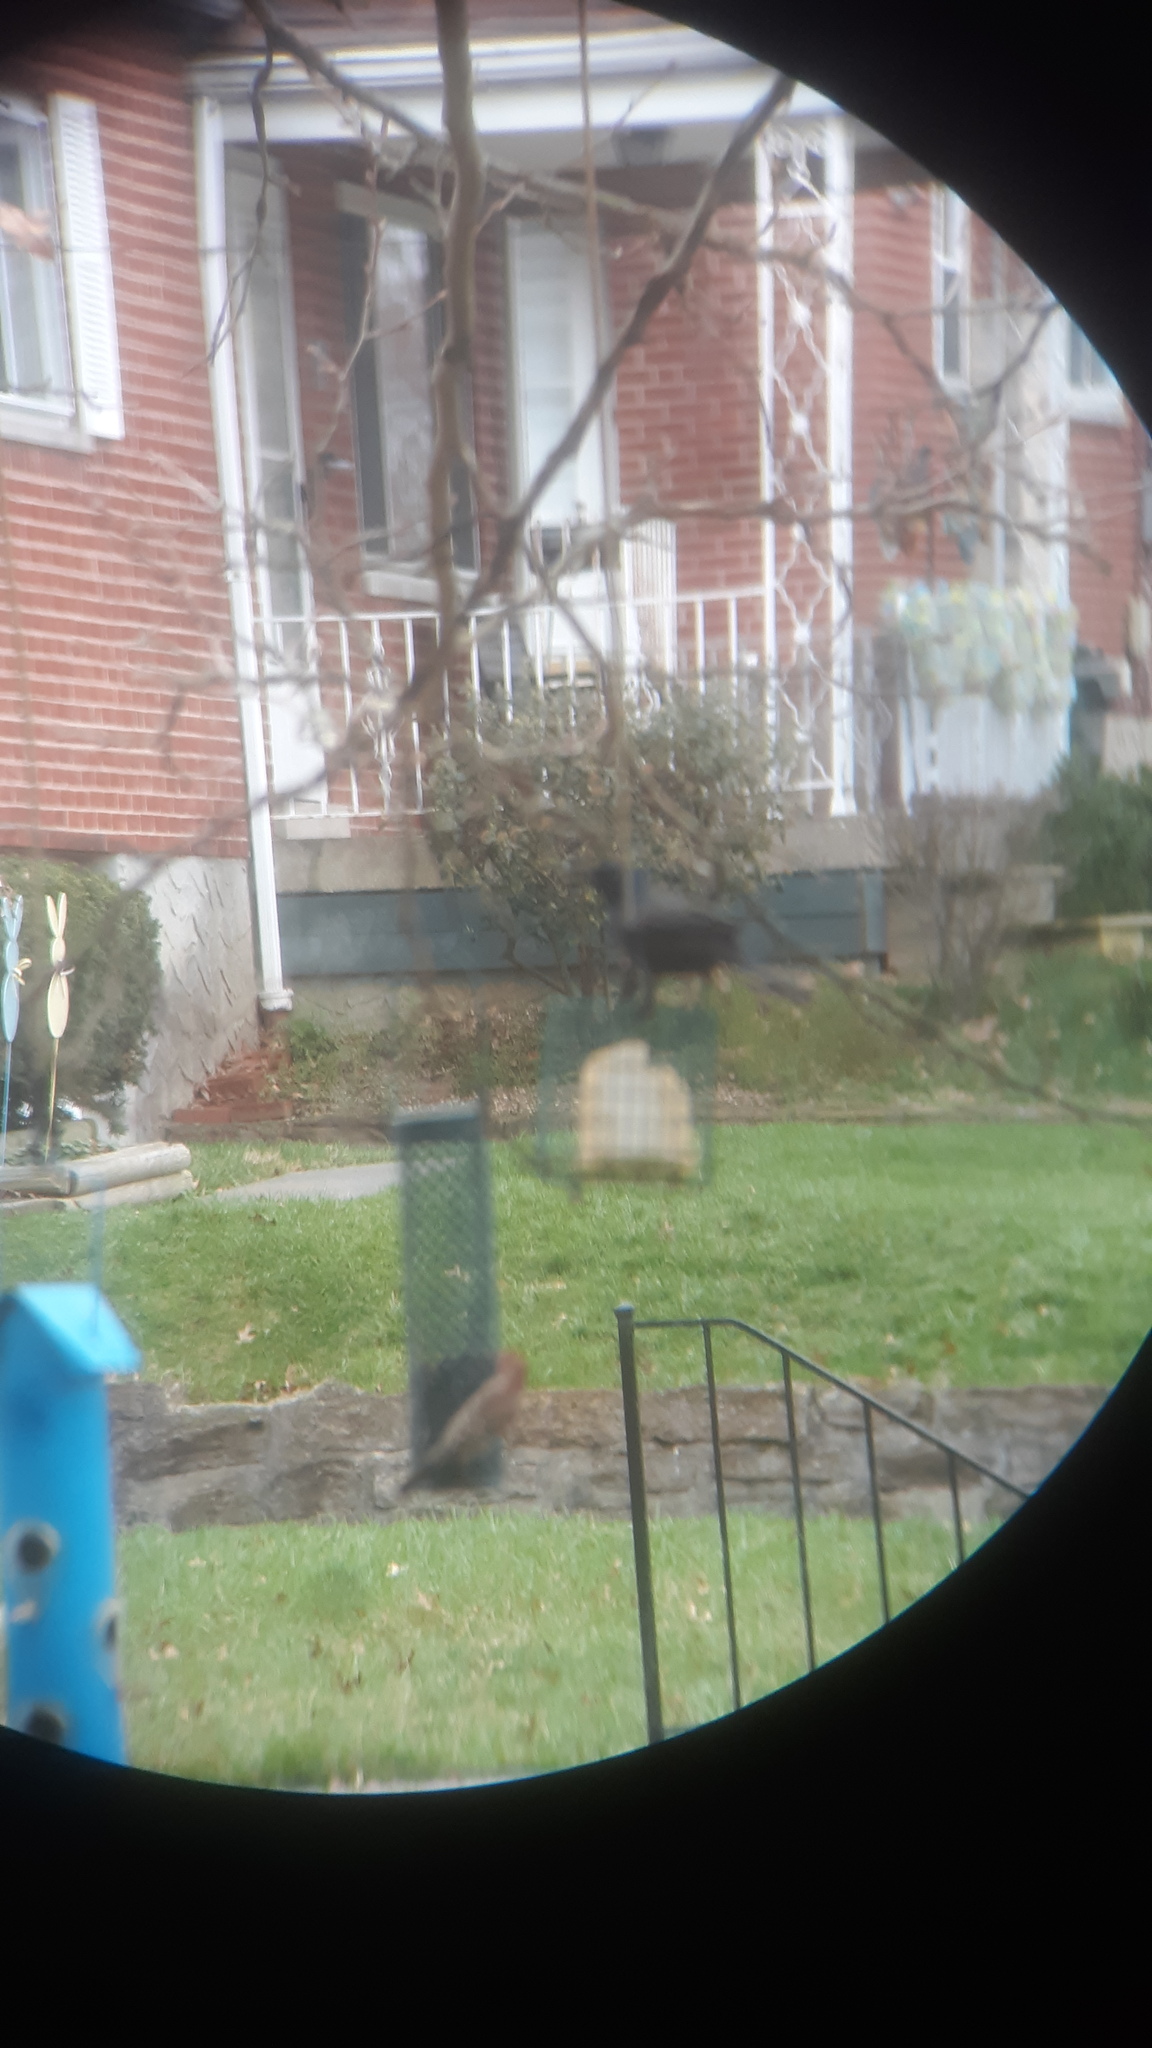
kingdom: Animalia
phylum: Chordata
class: Aves
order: Passeriformes
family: Icteridae
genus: Quiscalus
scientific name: Quiscalus quiscula
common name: Common grackle
